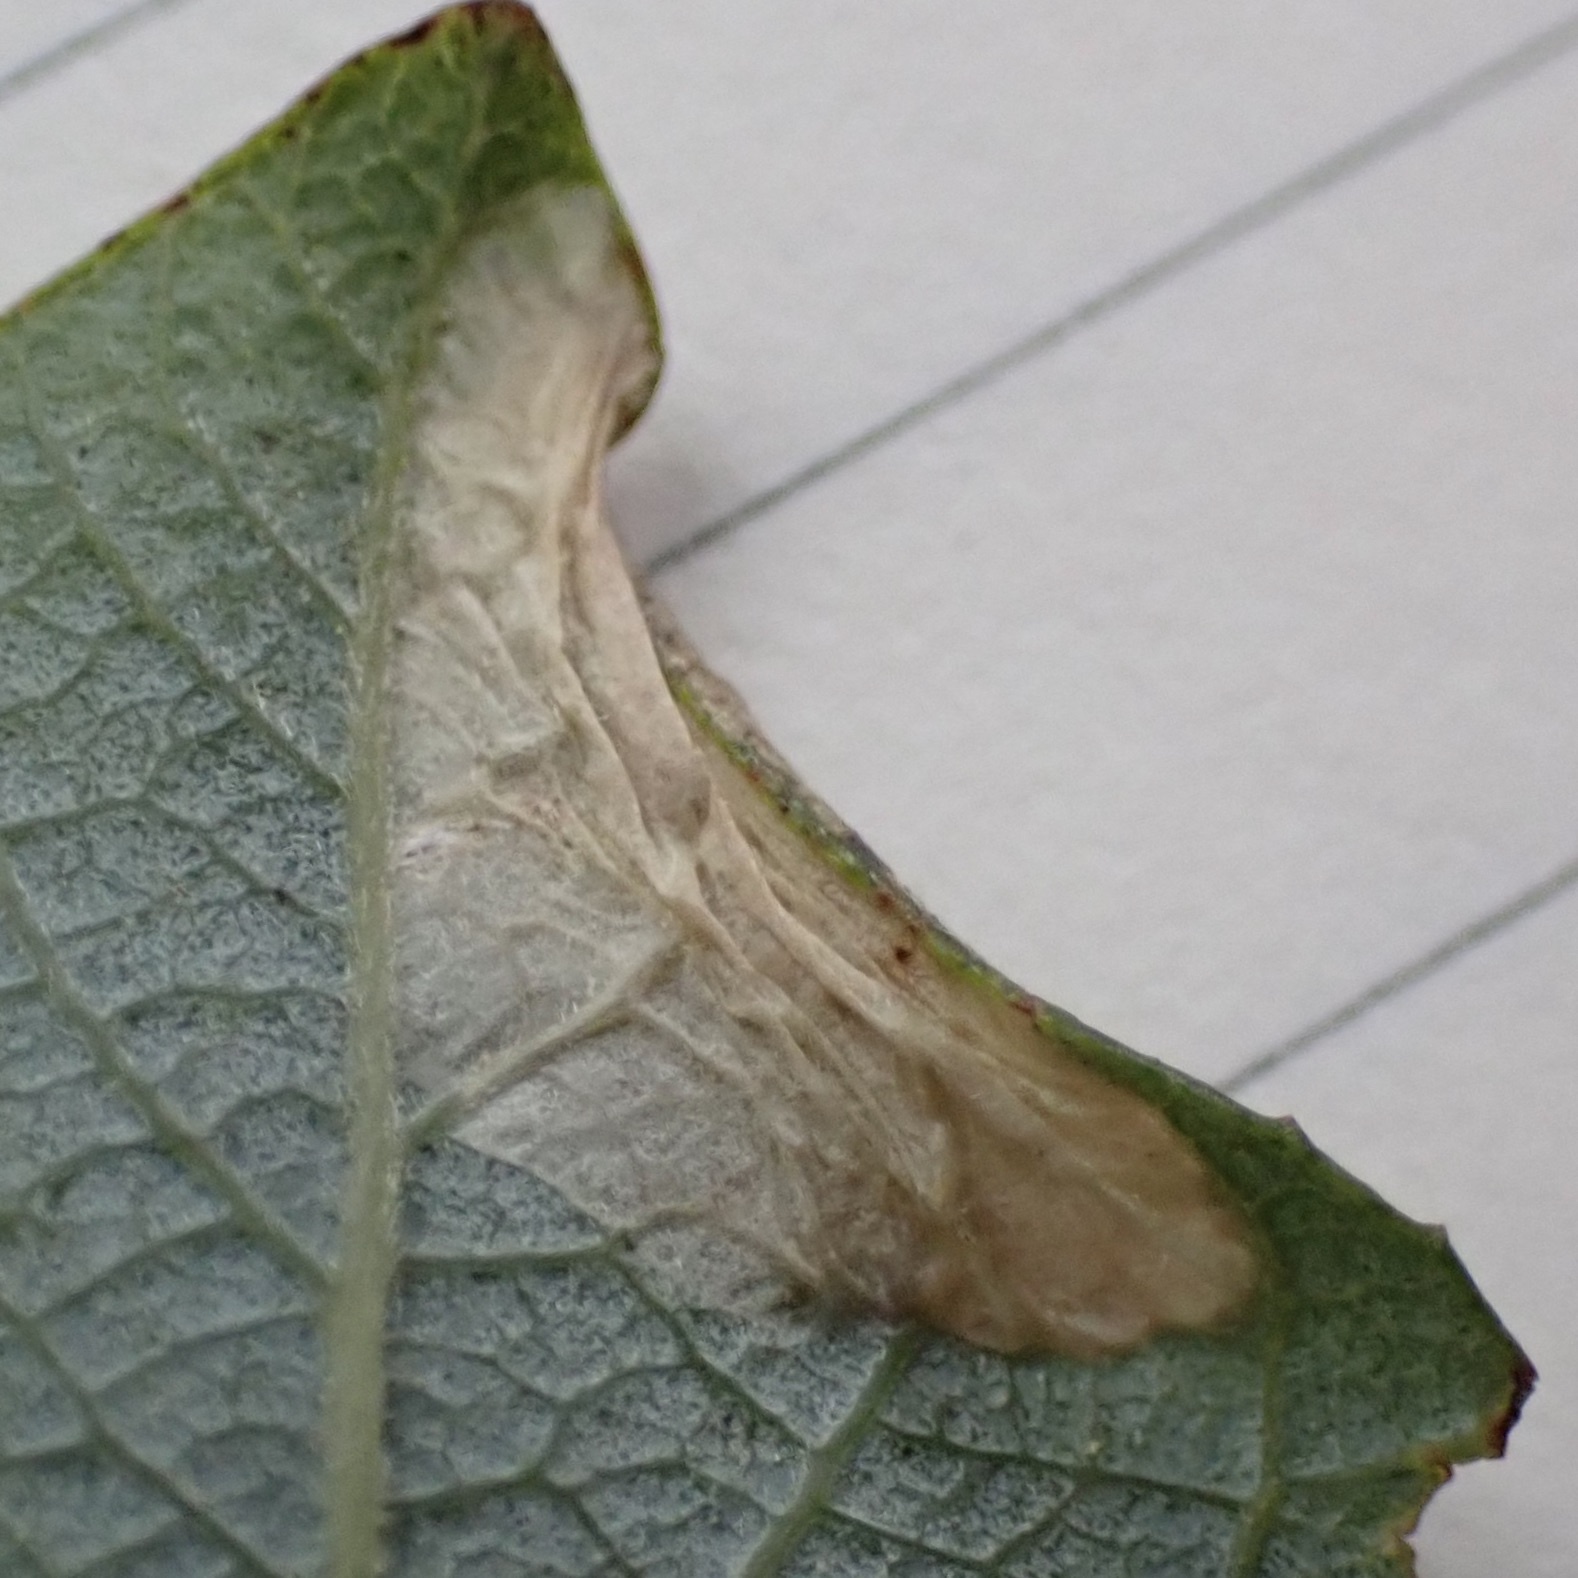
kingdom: Animalia
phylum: Arthropoda
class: Insecta
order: Lepidoptera
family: Gracillariidae
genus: Phyllonorycter
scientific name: Phyllonorycter scudderella
